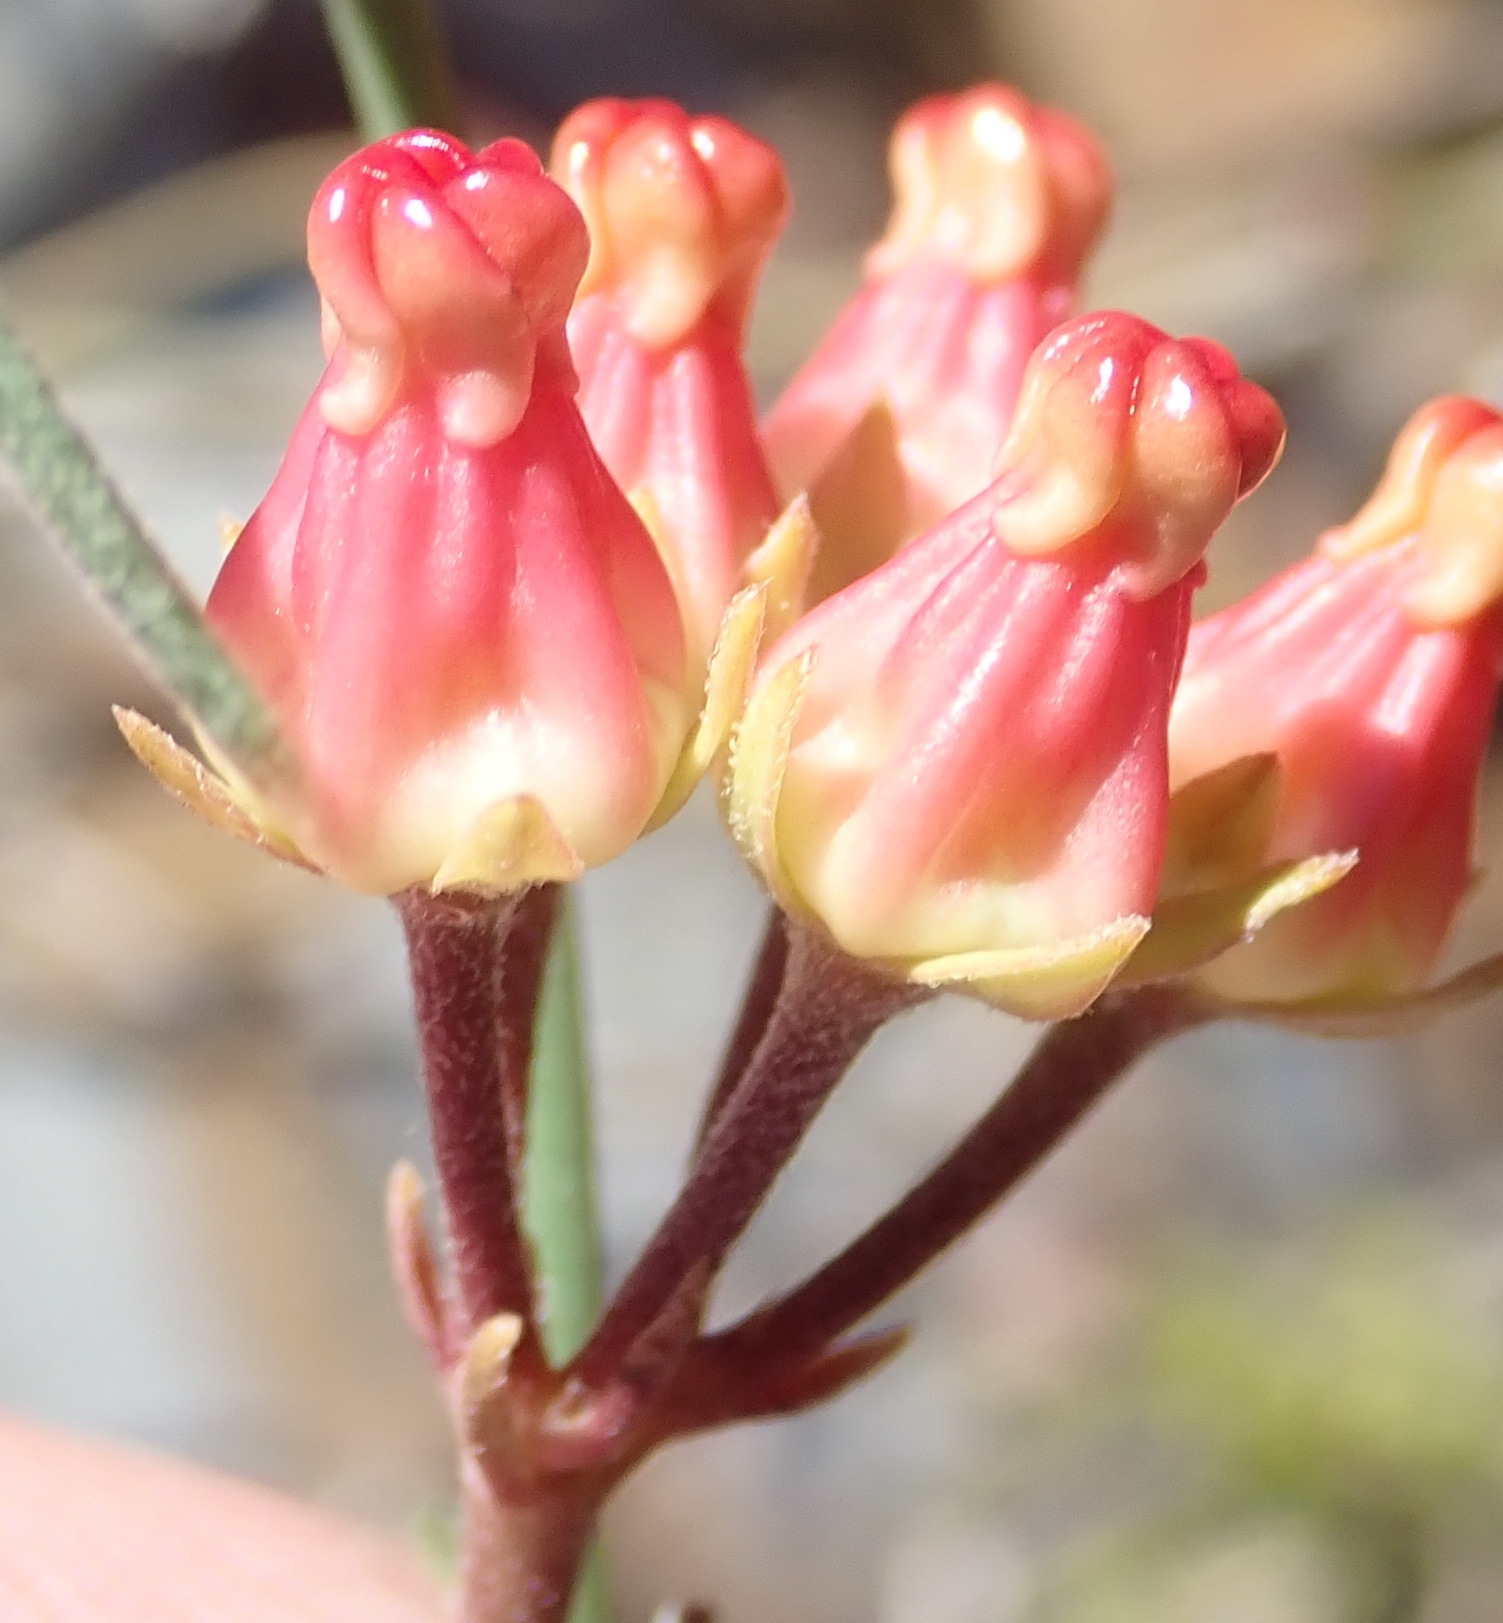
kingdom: Plantae
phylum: Tracheophyta
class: Magnoliopsida
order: Gentianales
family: Apocynaceae
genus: Microloma
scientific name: Microloma tenuifolium
